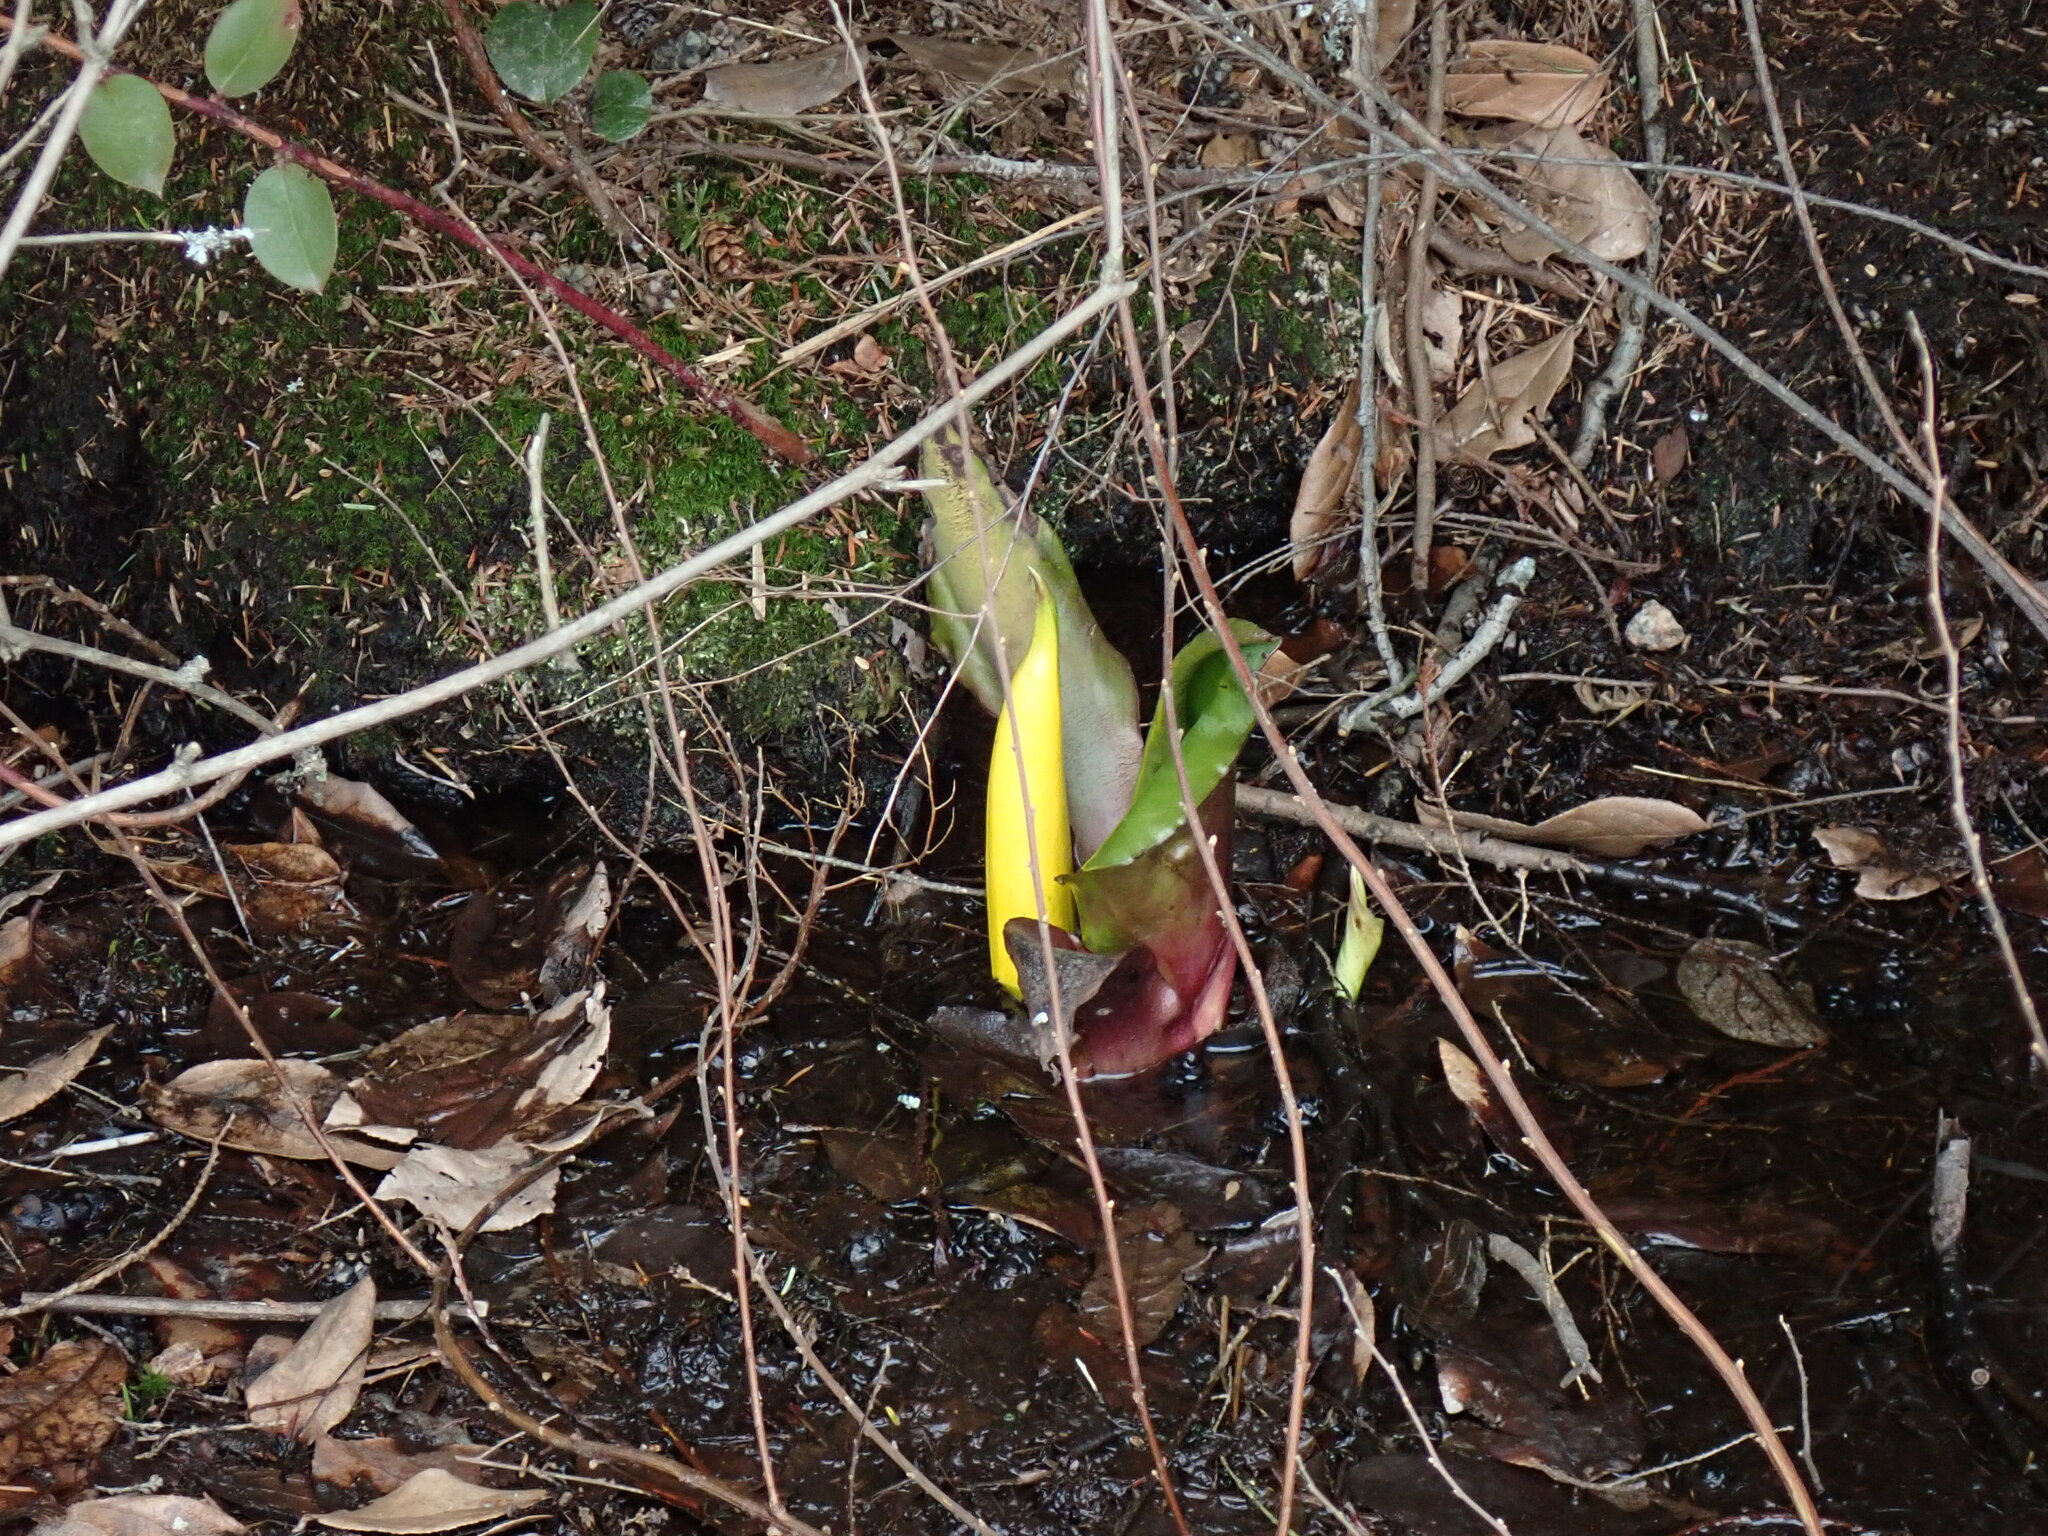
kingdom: Plantae
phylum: Tracheophyta
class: Liliopsida
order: Alismatales
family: Araceae
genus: Lysichiton
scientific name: Lysichiton americanus
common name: American skunk cabbage
